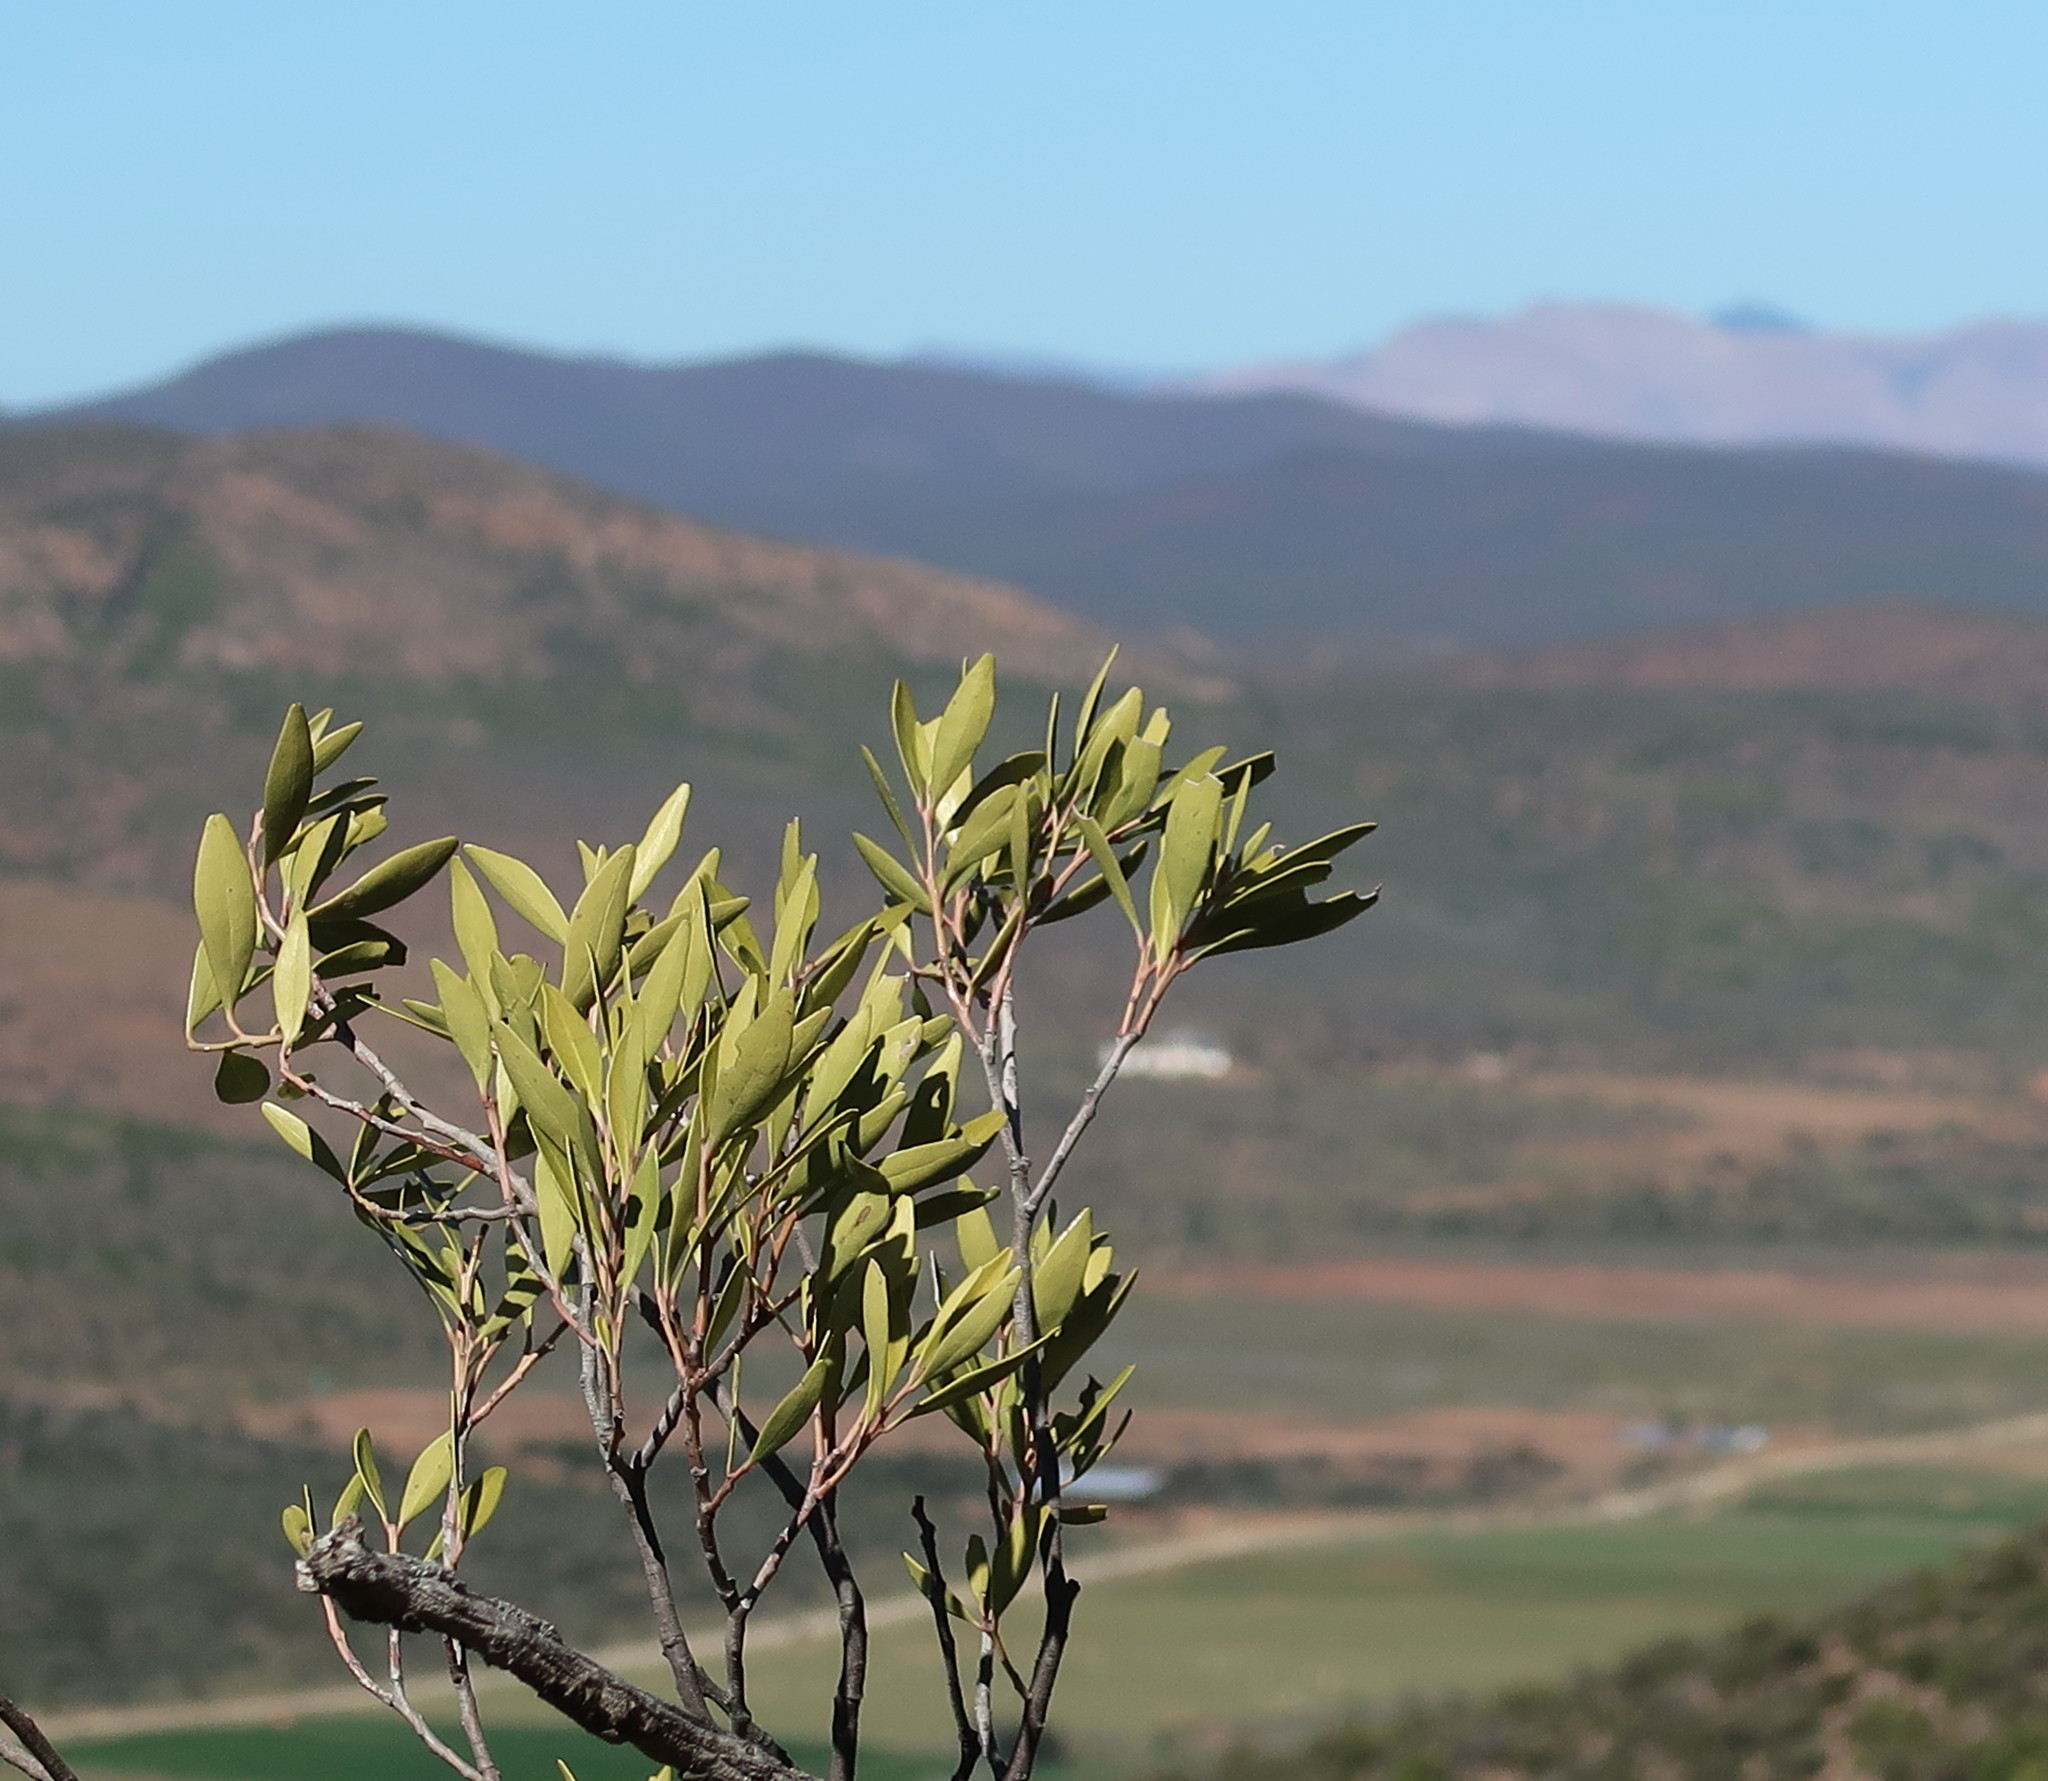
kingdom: Plantae
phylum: Tracheophyta
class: Magnoliopsida
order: Celastrales
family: Celastraceae
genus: Gymnosporia
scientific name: Gymnosporia laurina
